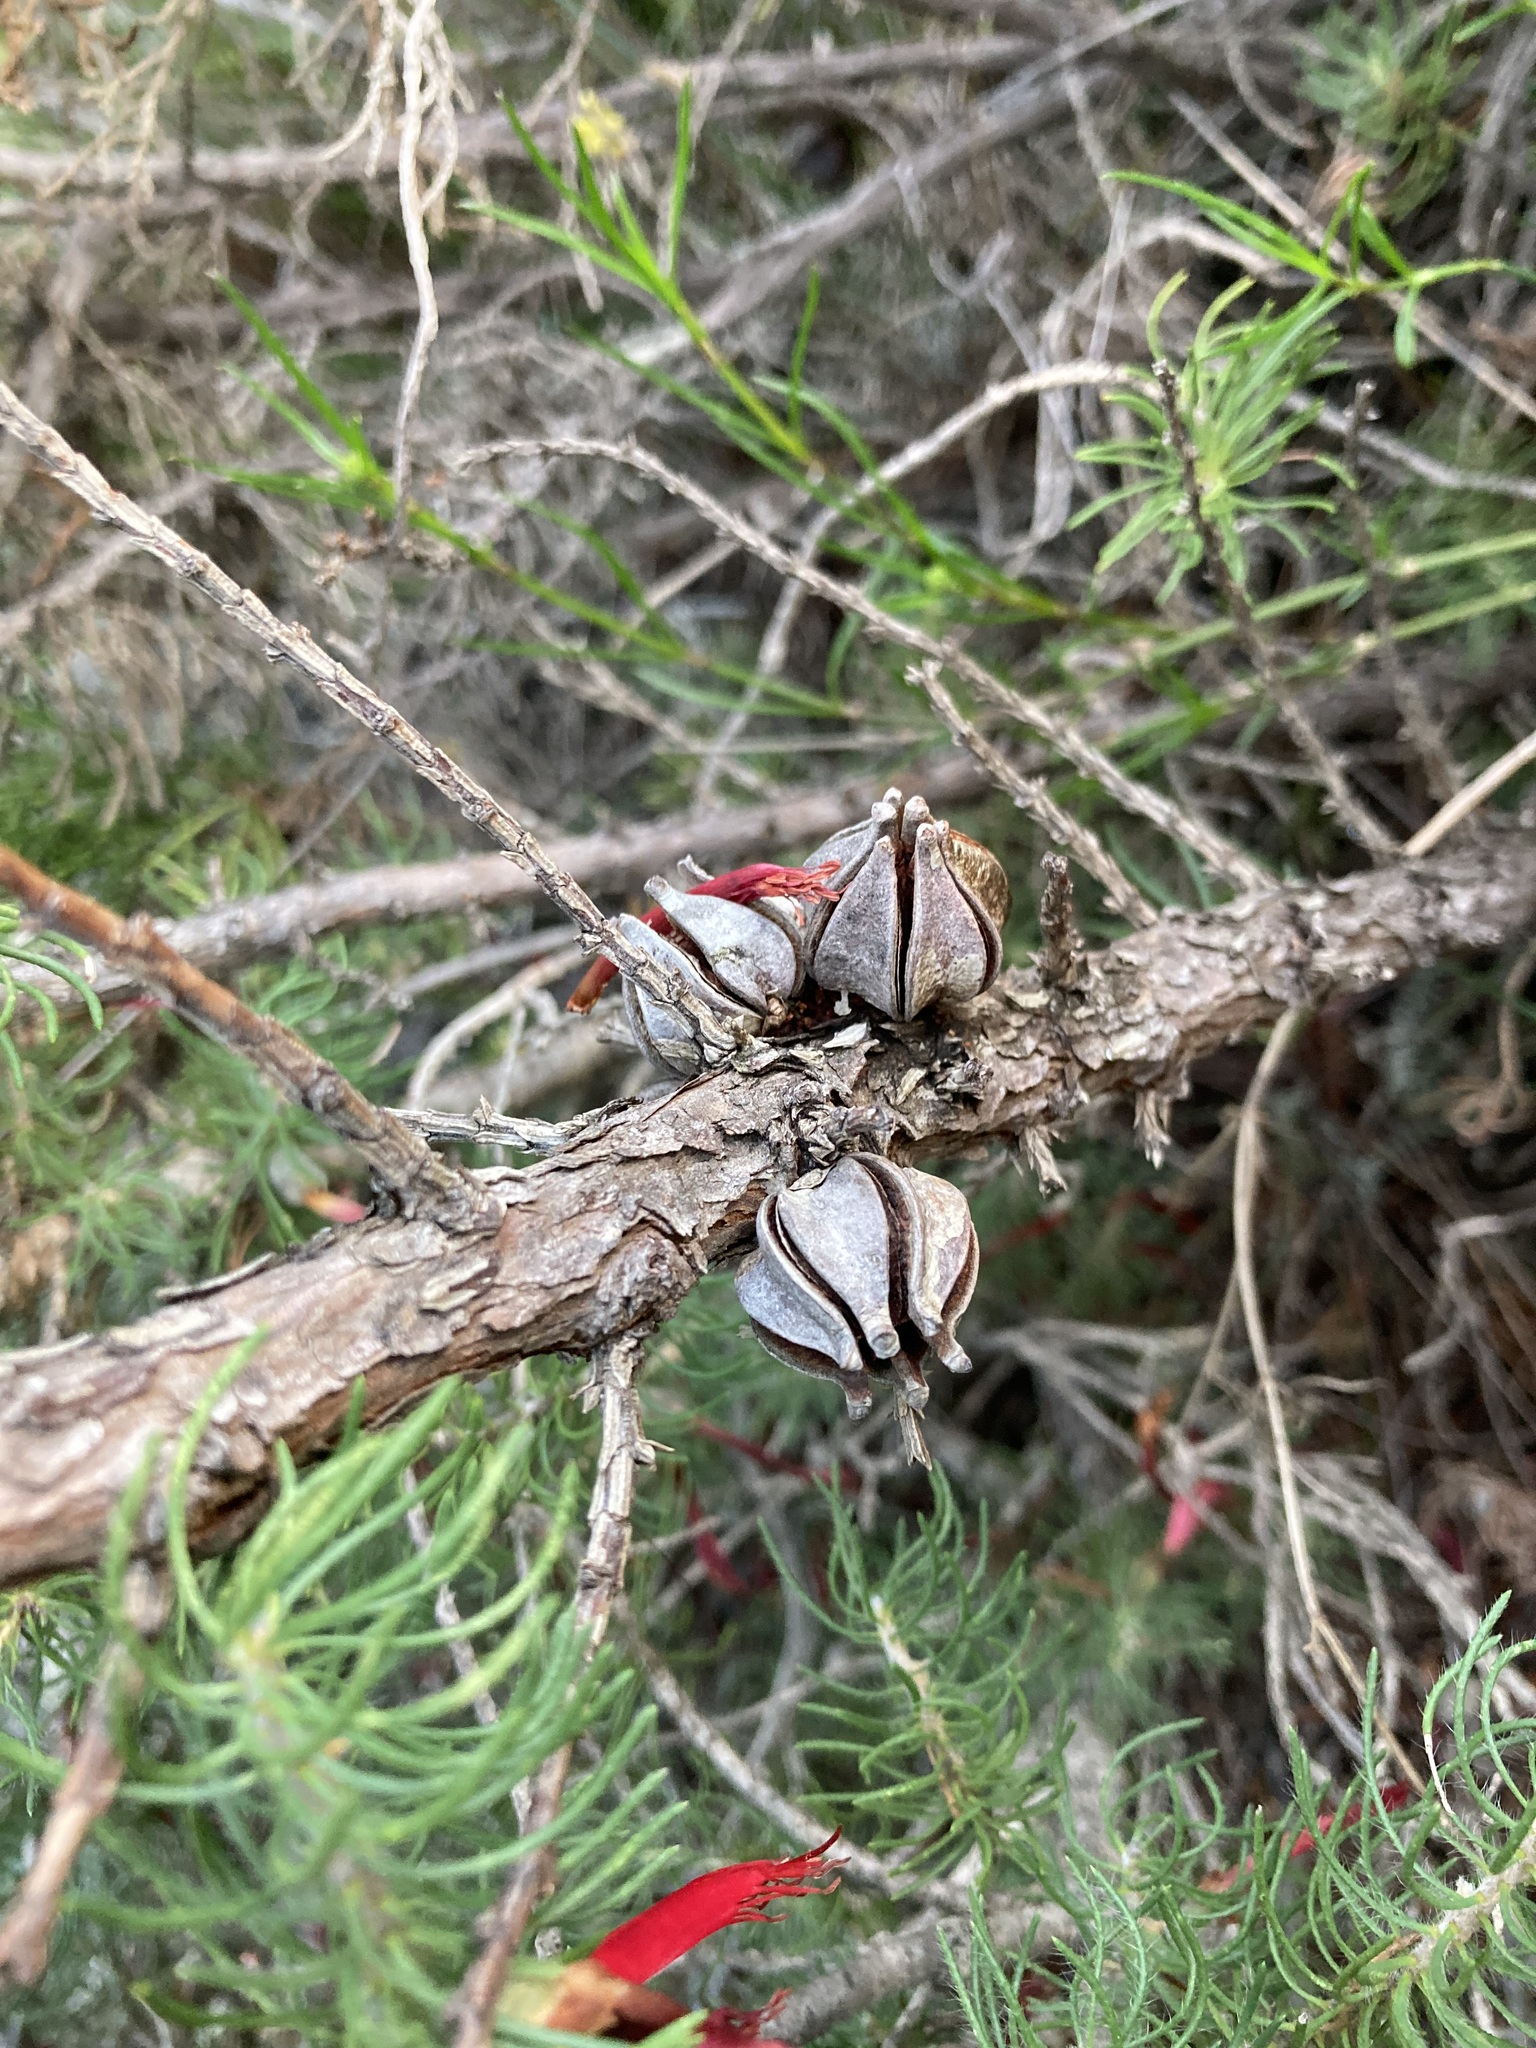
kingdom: Plantae
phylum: Tracheophyta
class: Pinopsida
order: Pinales
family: Cupressaceae
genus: Actinostrobus
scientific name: Actinostrobus acuminatus
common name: Dwarf-cypress
